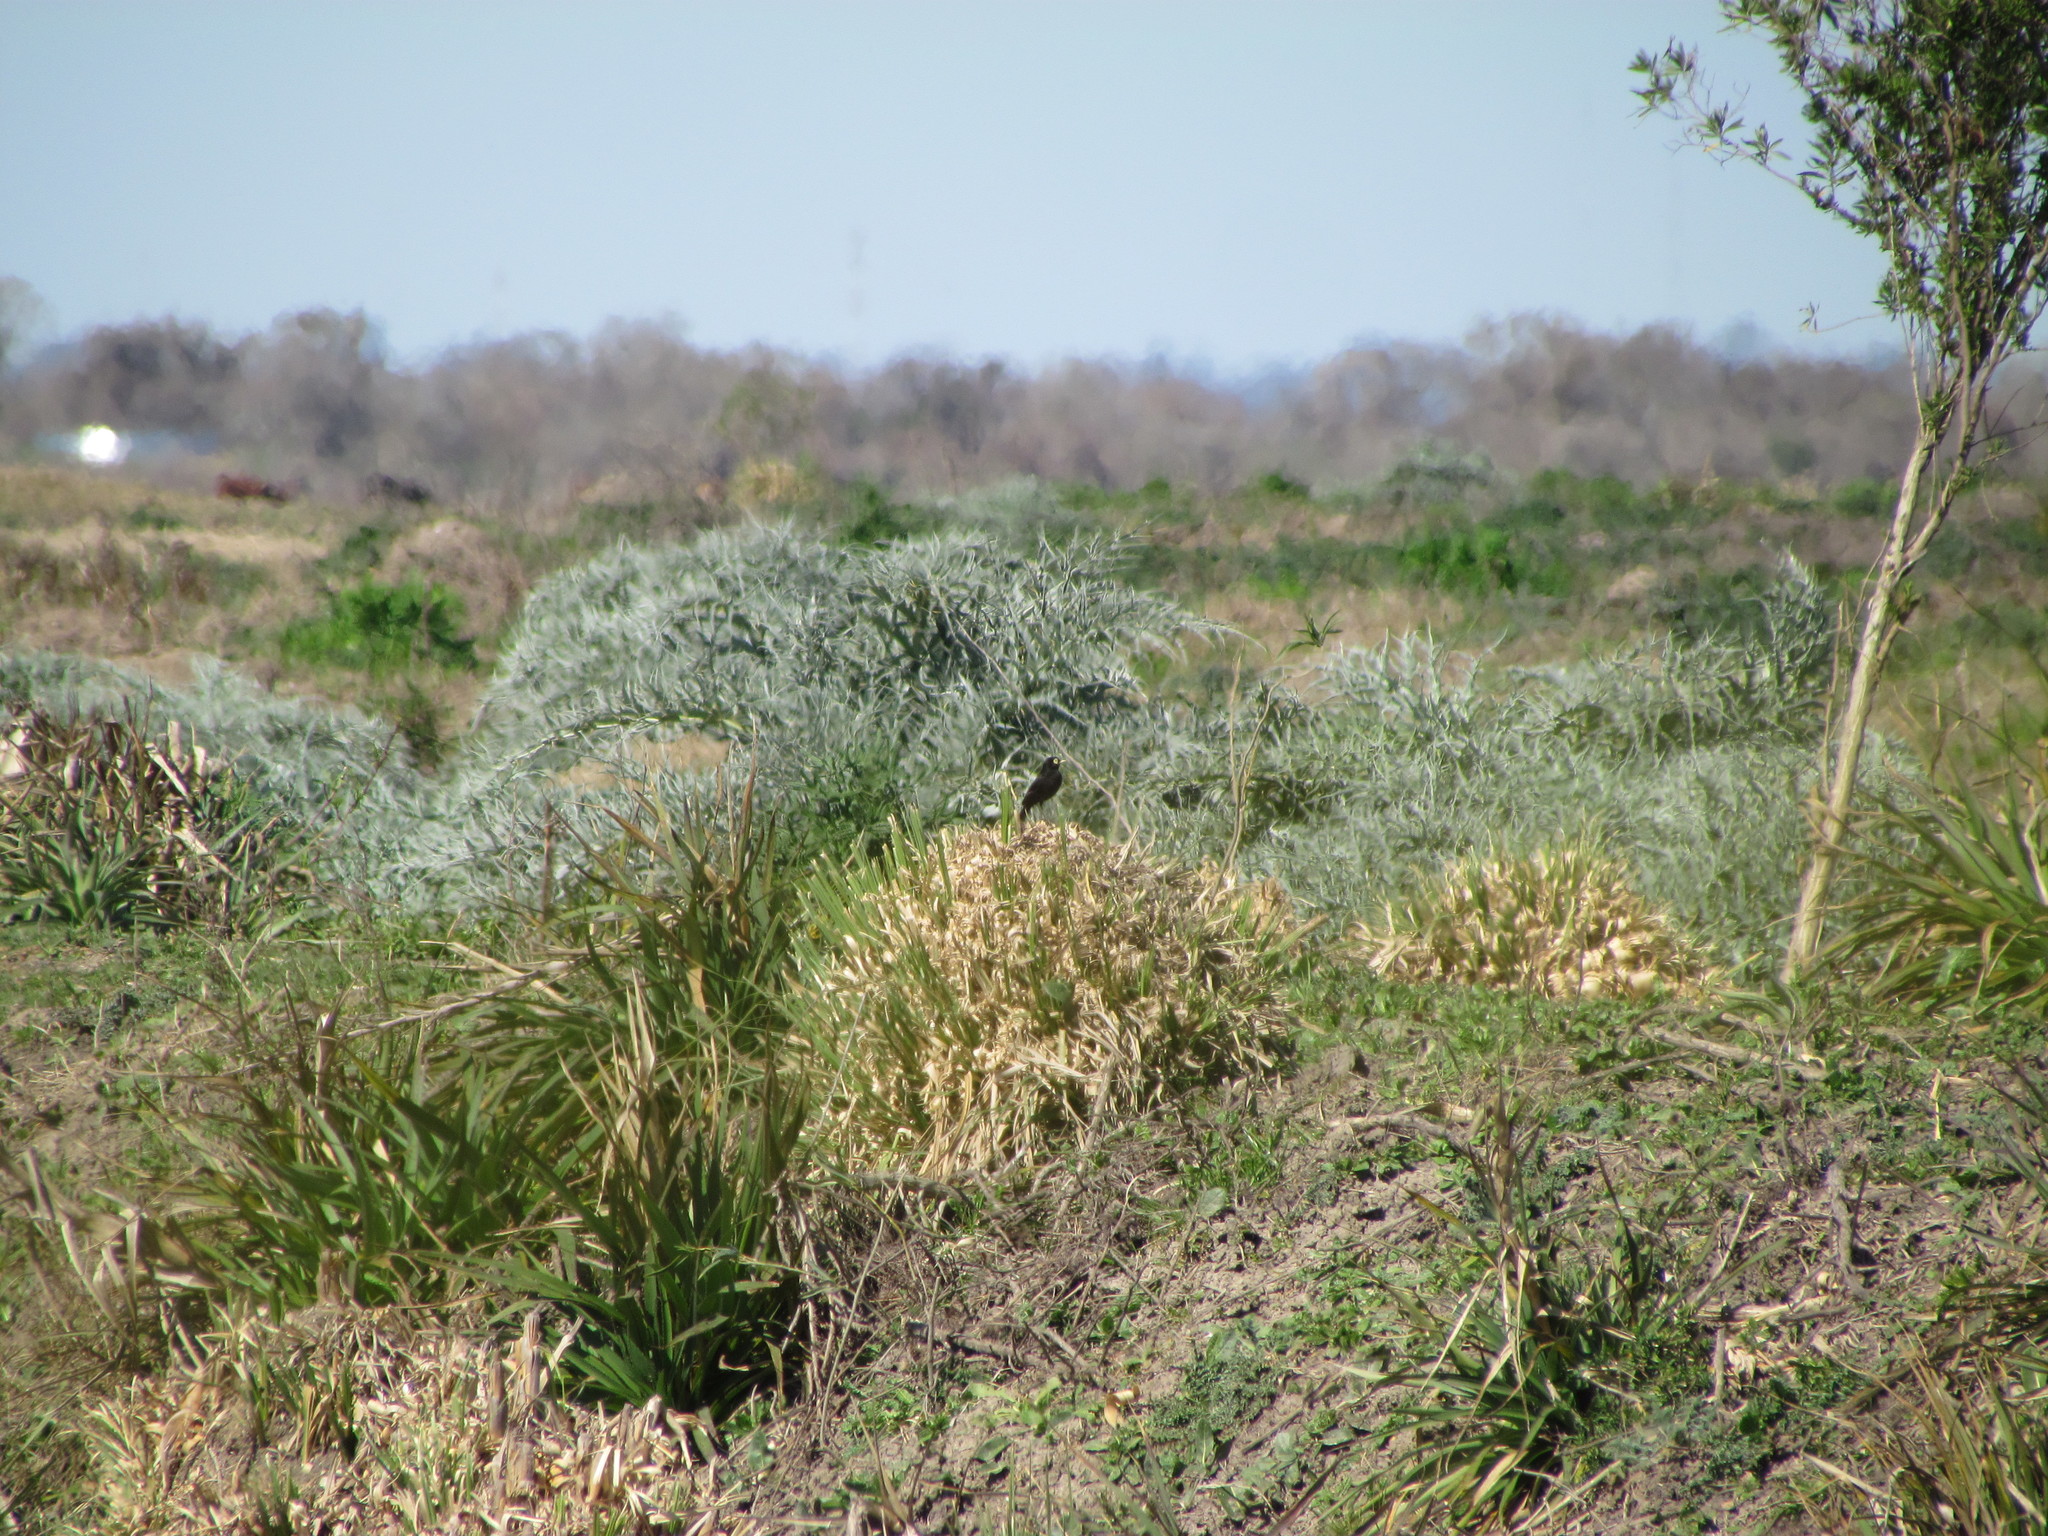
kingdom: Animalia
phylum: Chordata
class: Aves
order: Passeriformes
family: Tyrannidae
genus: Hymenops
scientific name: Hymenops perspicillatus
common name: Spectacled tyrant
